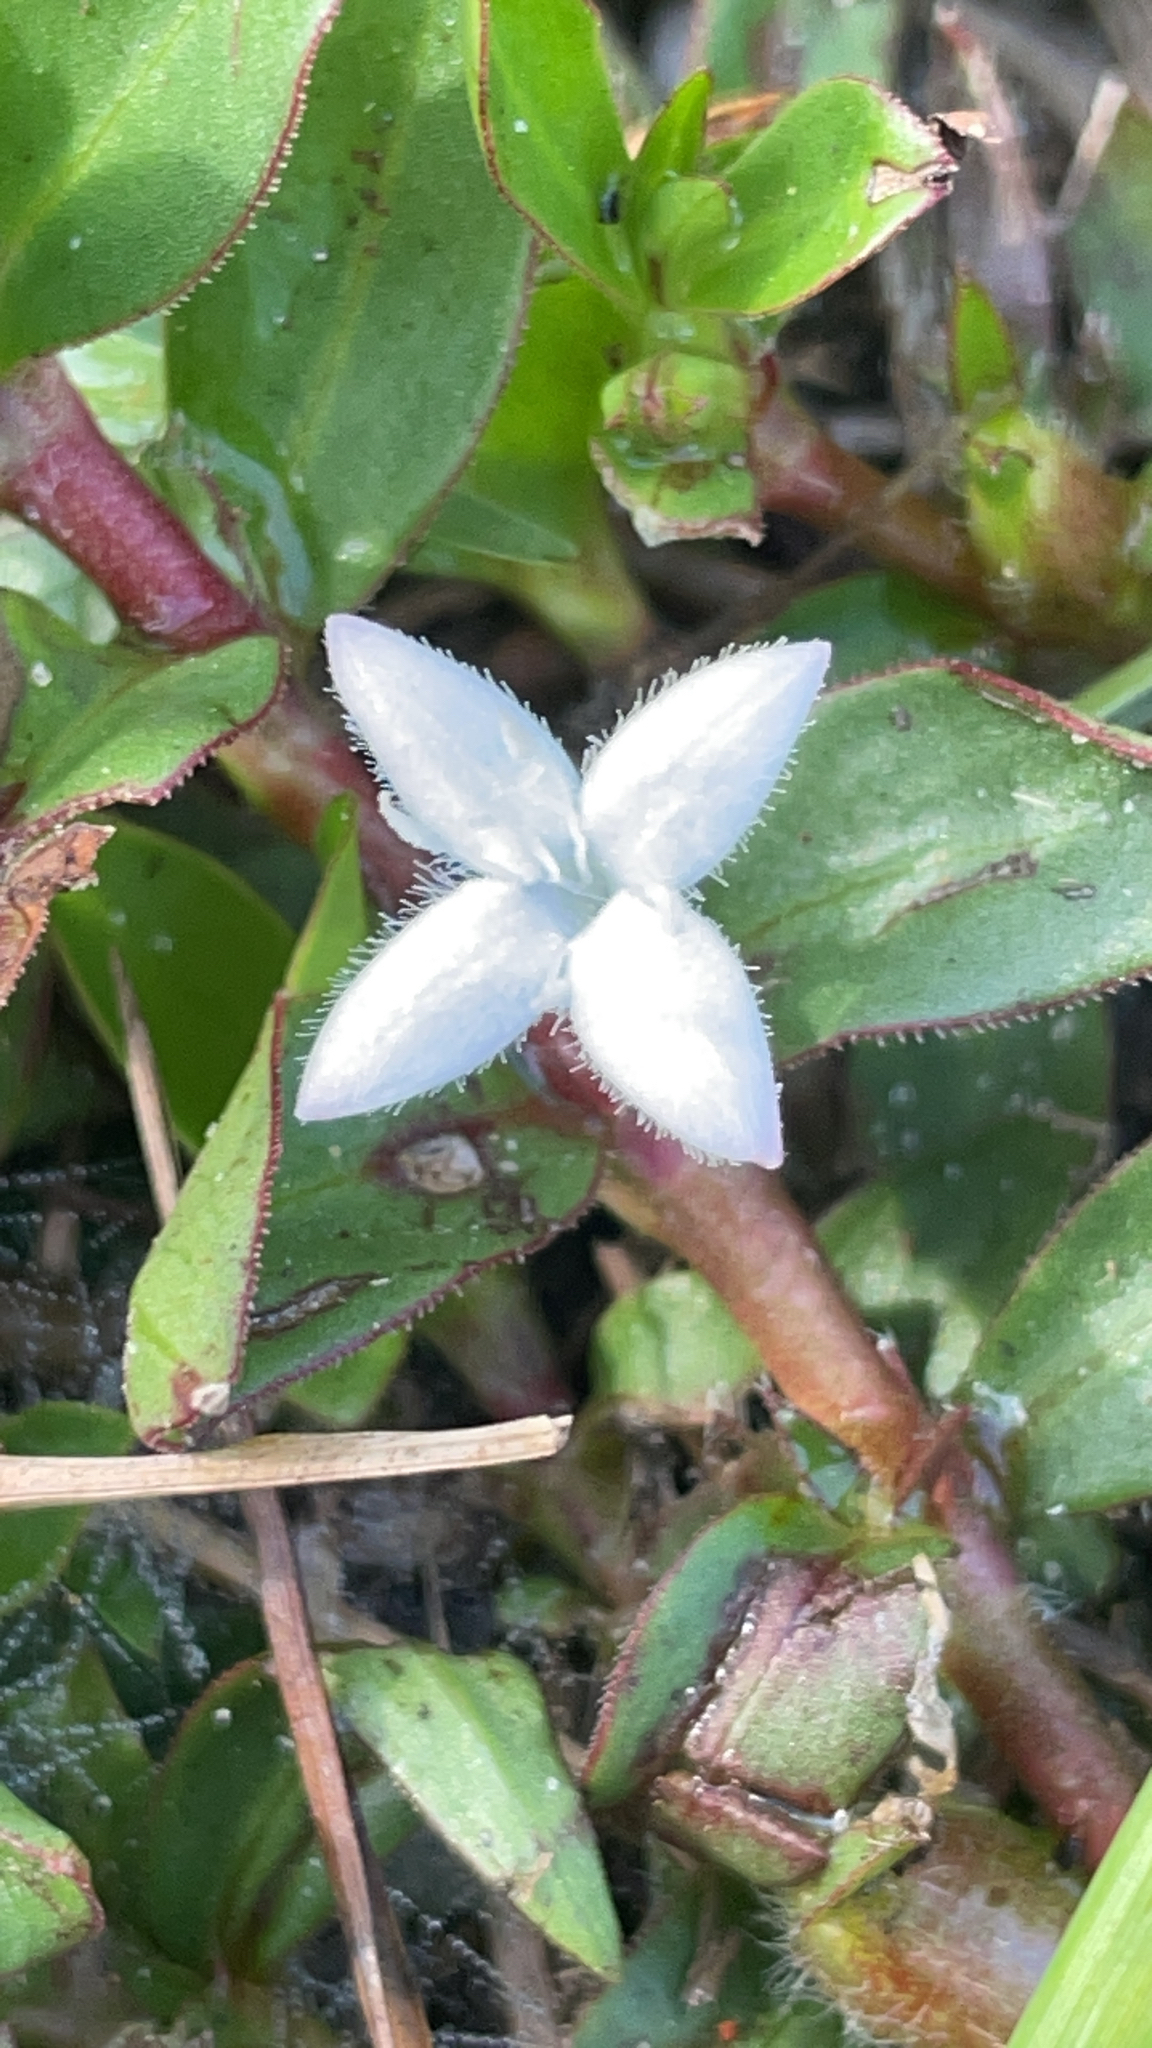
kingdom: Plantae
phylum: Tracheophyta
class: Magnoliopsida
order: Gentianales
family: Rubiaceae
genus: Diodia
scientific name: Diodia virginiana
